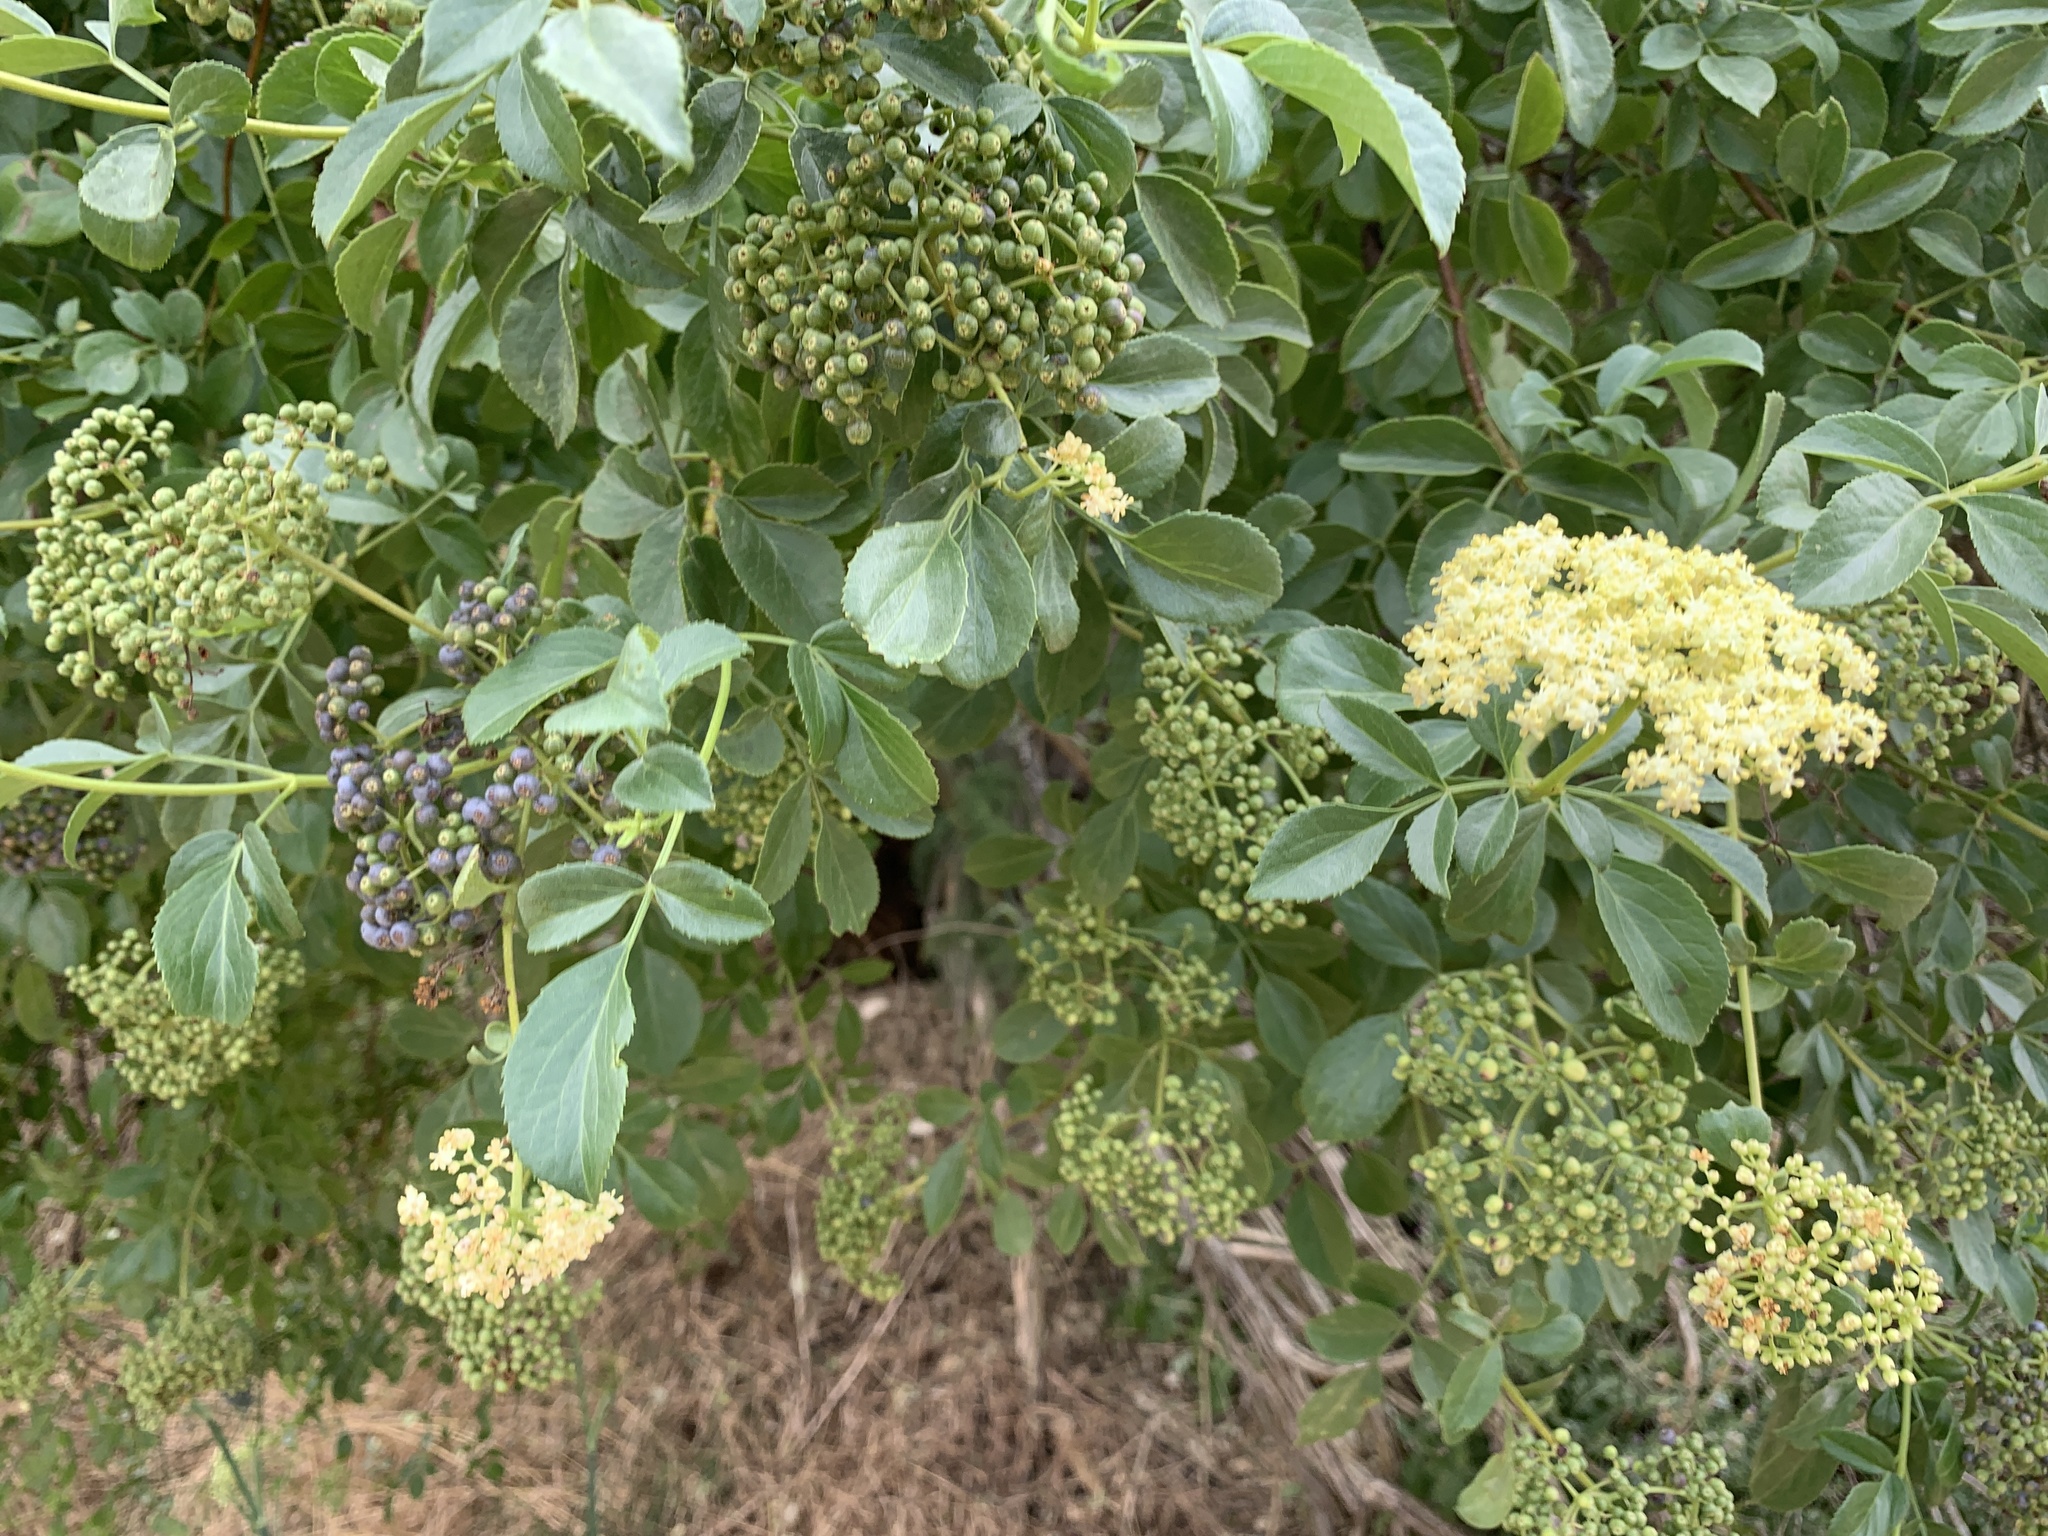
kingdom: Plantae
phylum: Tracheophyta
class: Magnoliopsida
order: Dipsacales
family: Viburnaceae
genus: Sambucus
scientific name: Sambucus cerulea
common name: Blue elder
